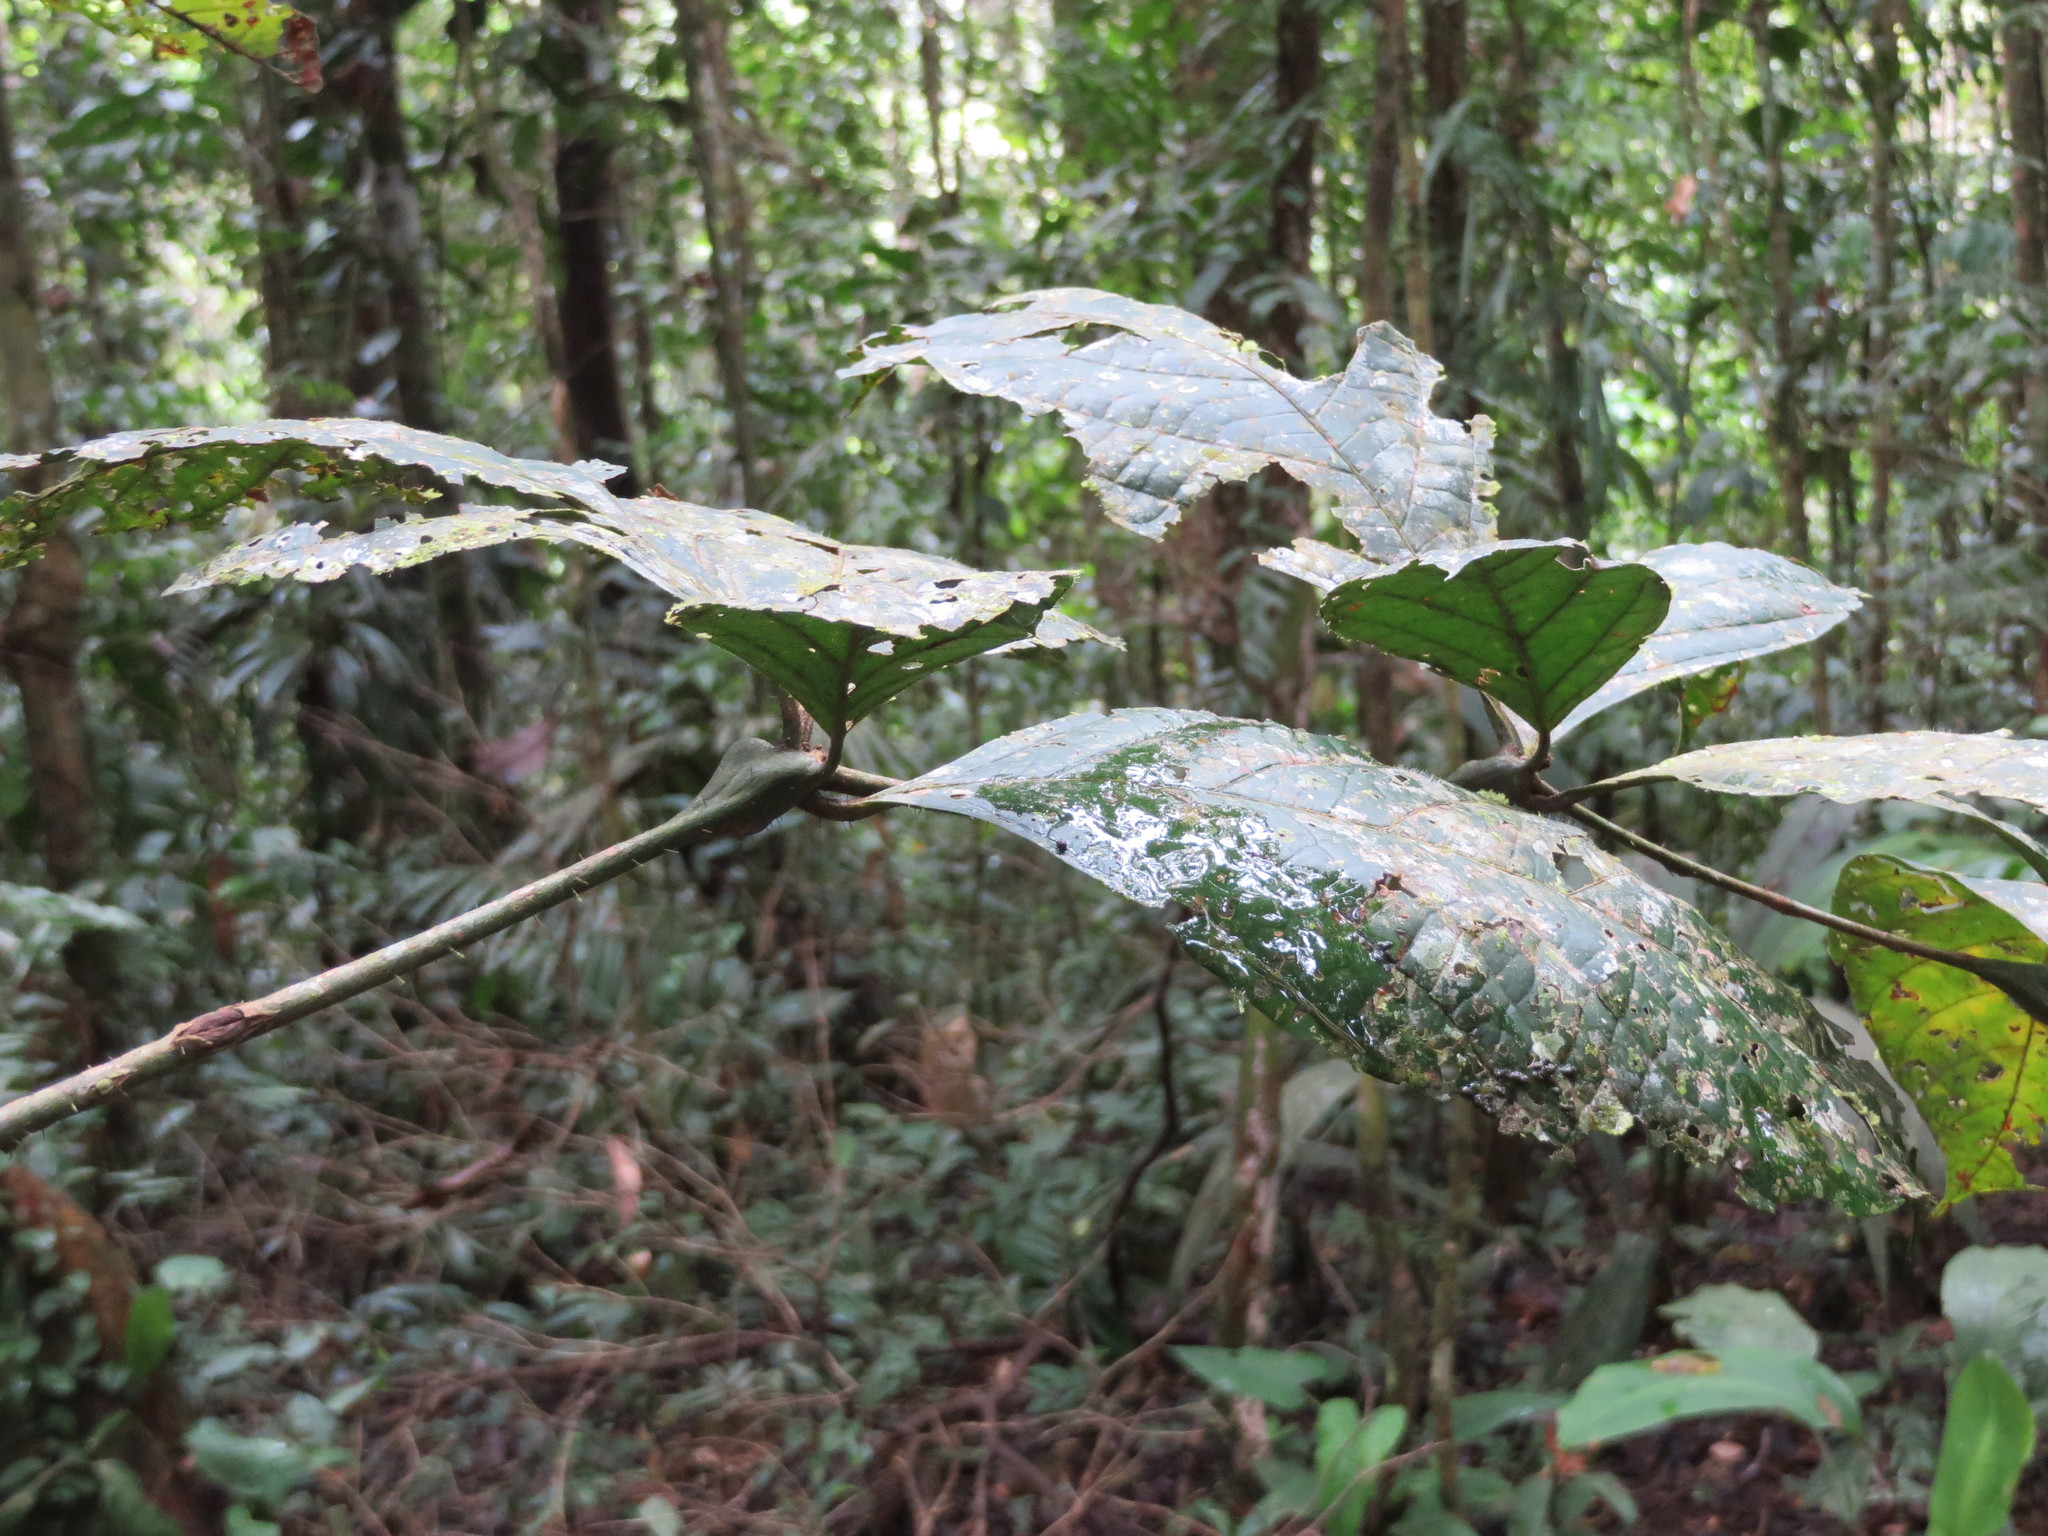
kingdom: Plantae
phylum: Tracheophyta
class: Magnoliopsida
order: Boraginales
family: Cordiaceae
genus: Cordia
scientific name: Cordia nodosa
